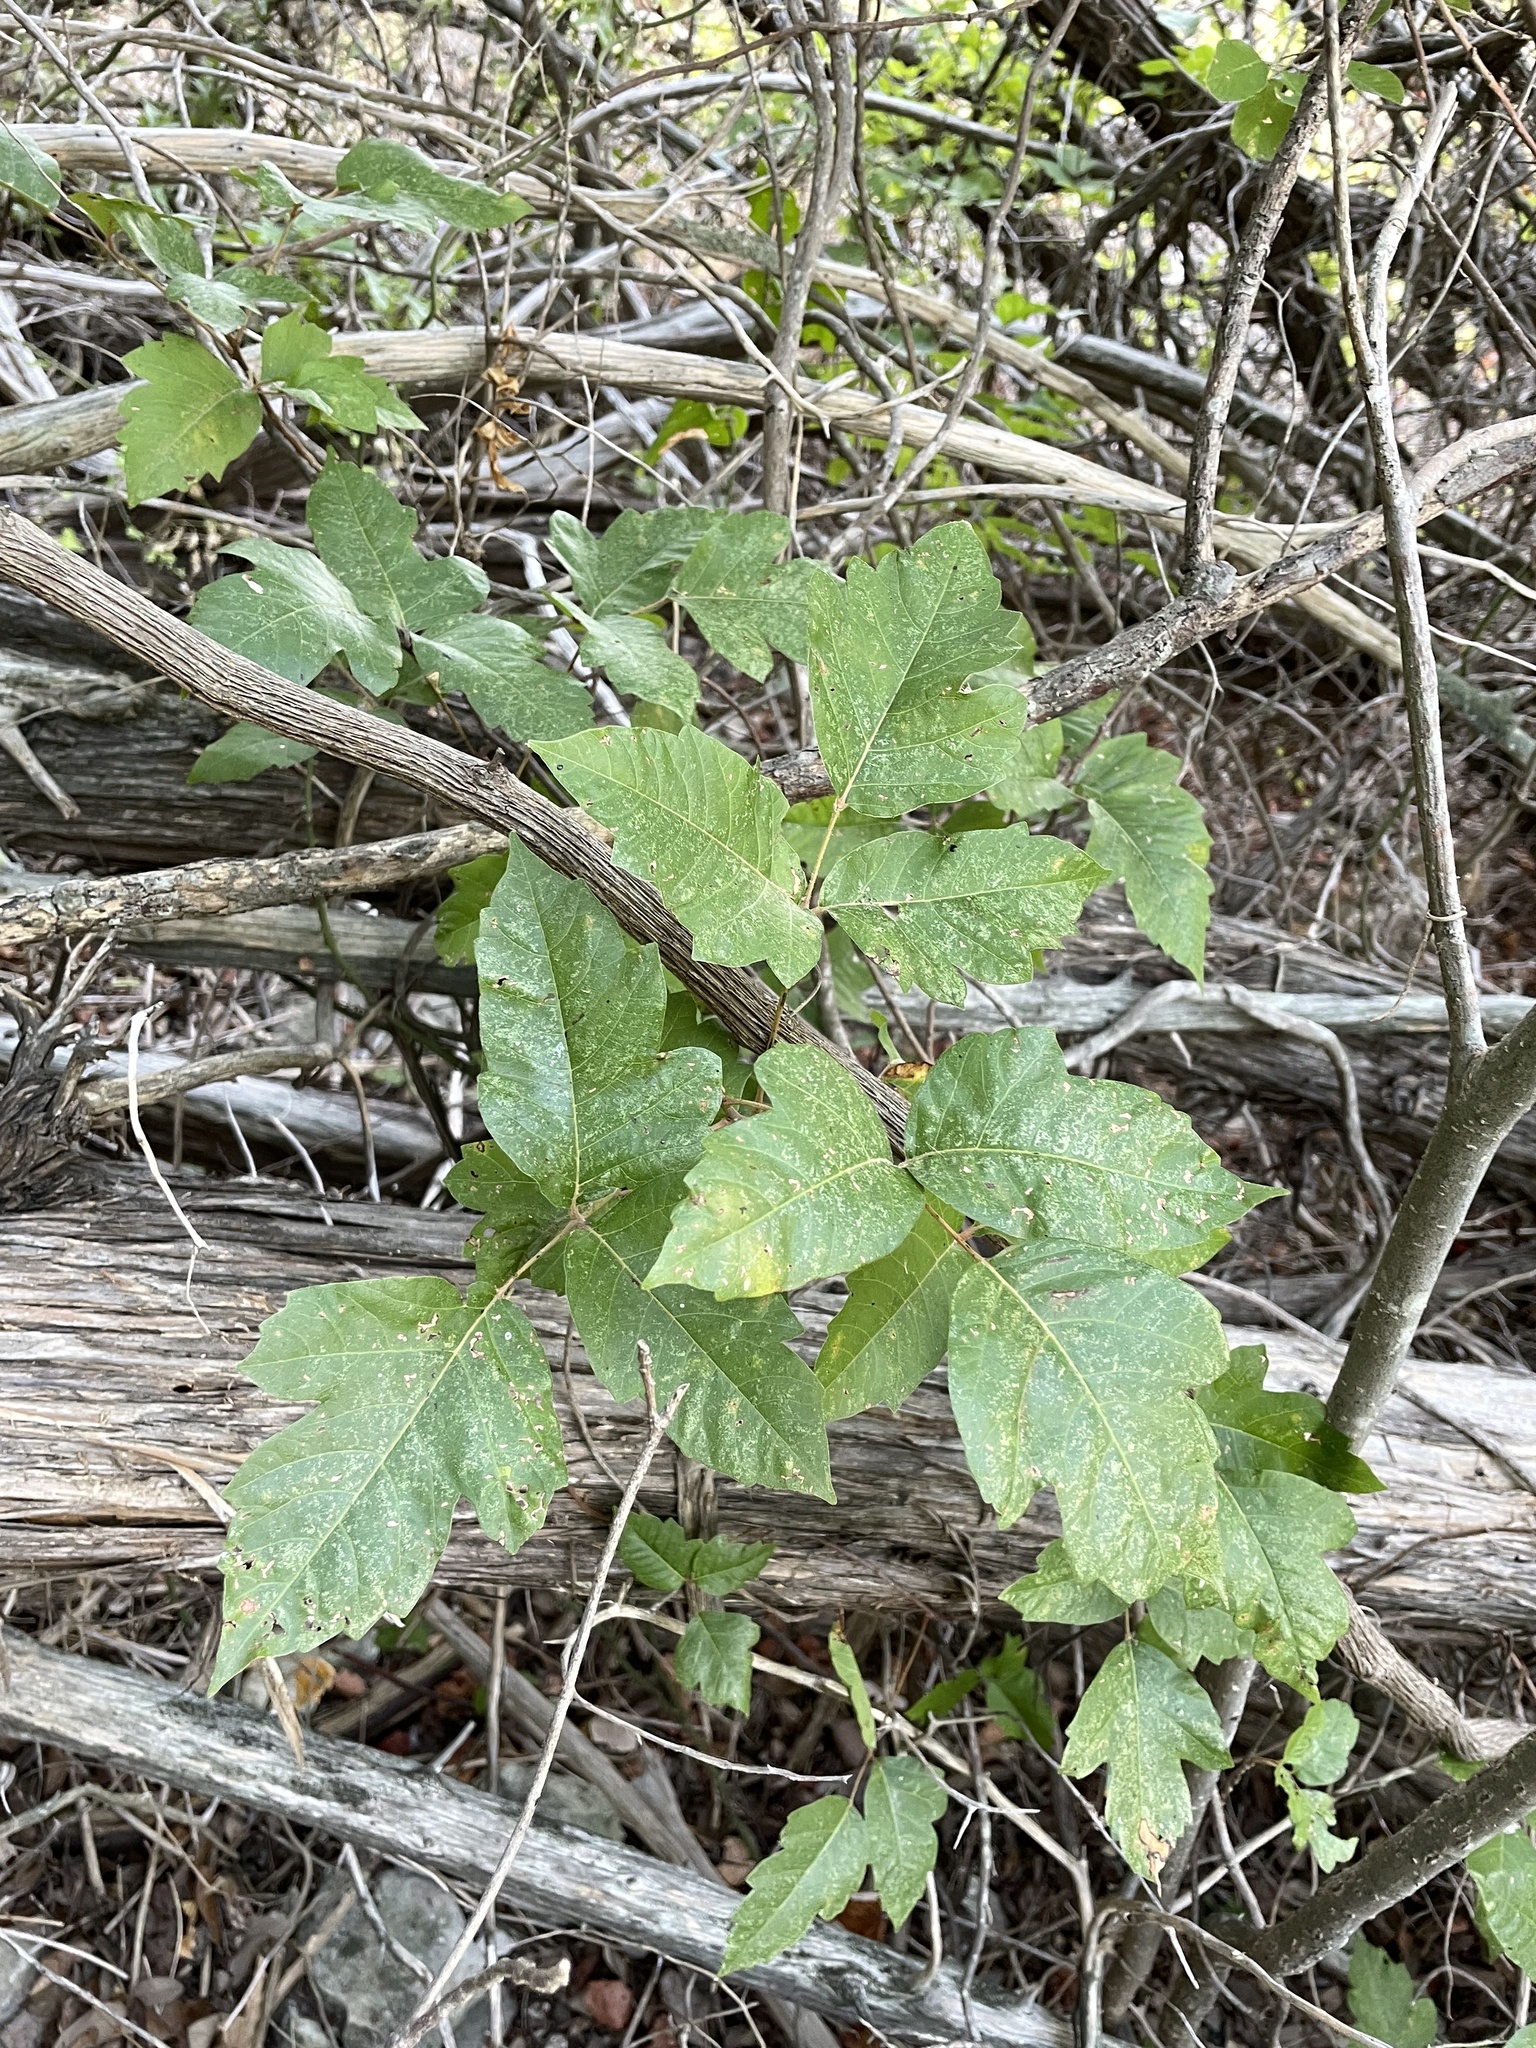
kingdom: Plantae
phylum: Tracheophyta
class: Magnoliopsida
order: Sapindales
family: Anacardiaceae
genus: Toxicodendron
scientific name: Toxicodendron radicans
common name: Poison ivy
